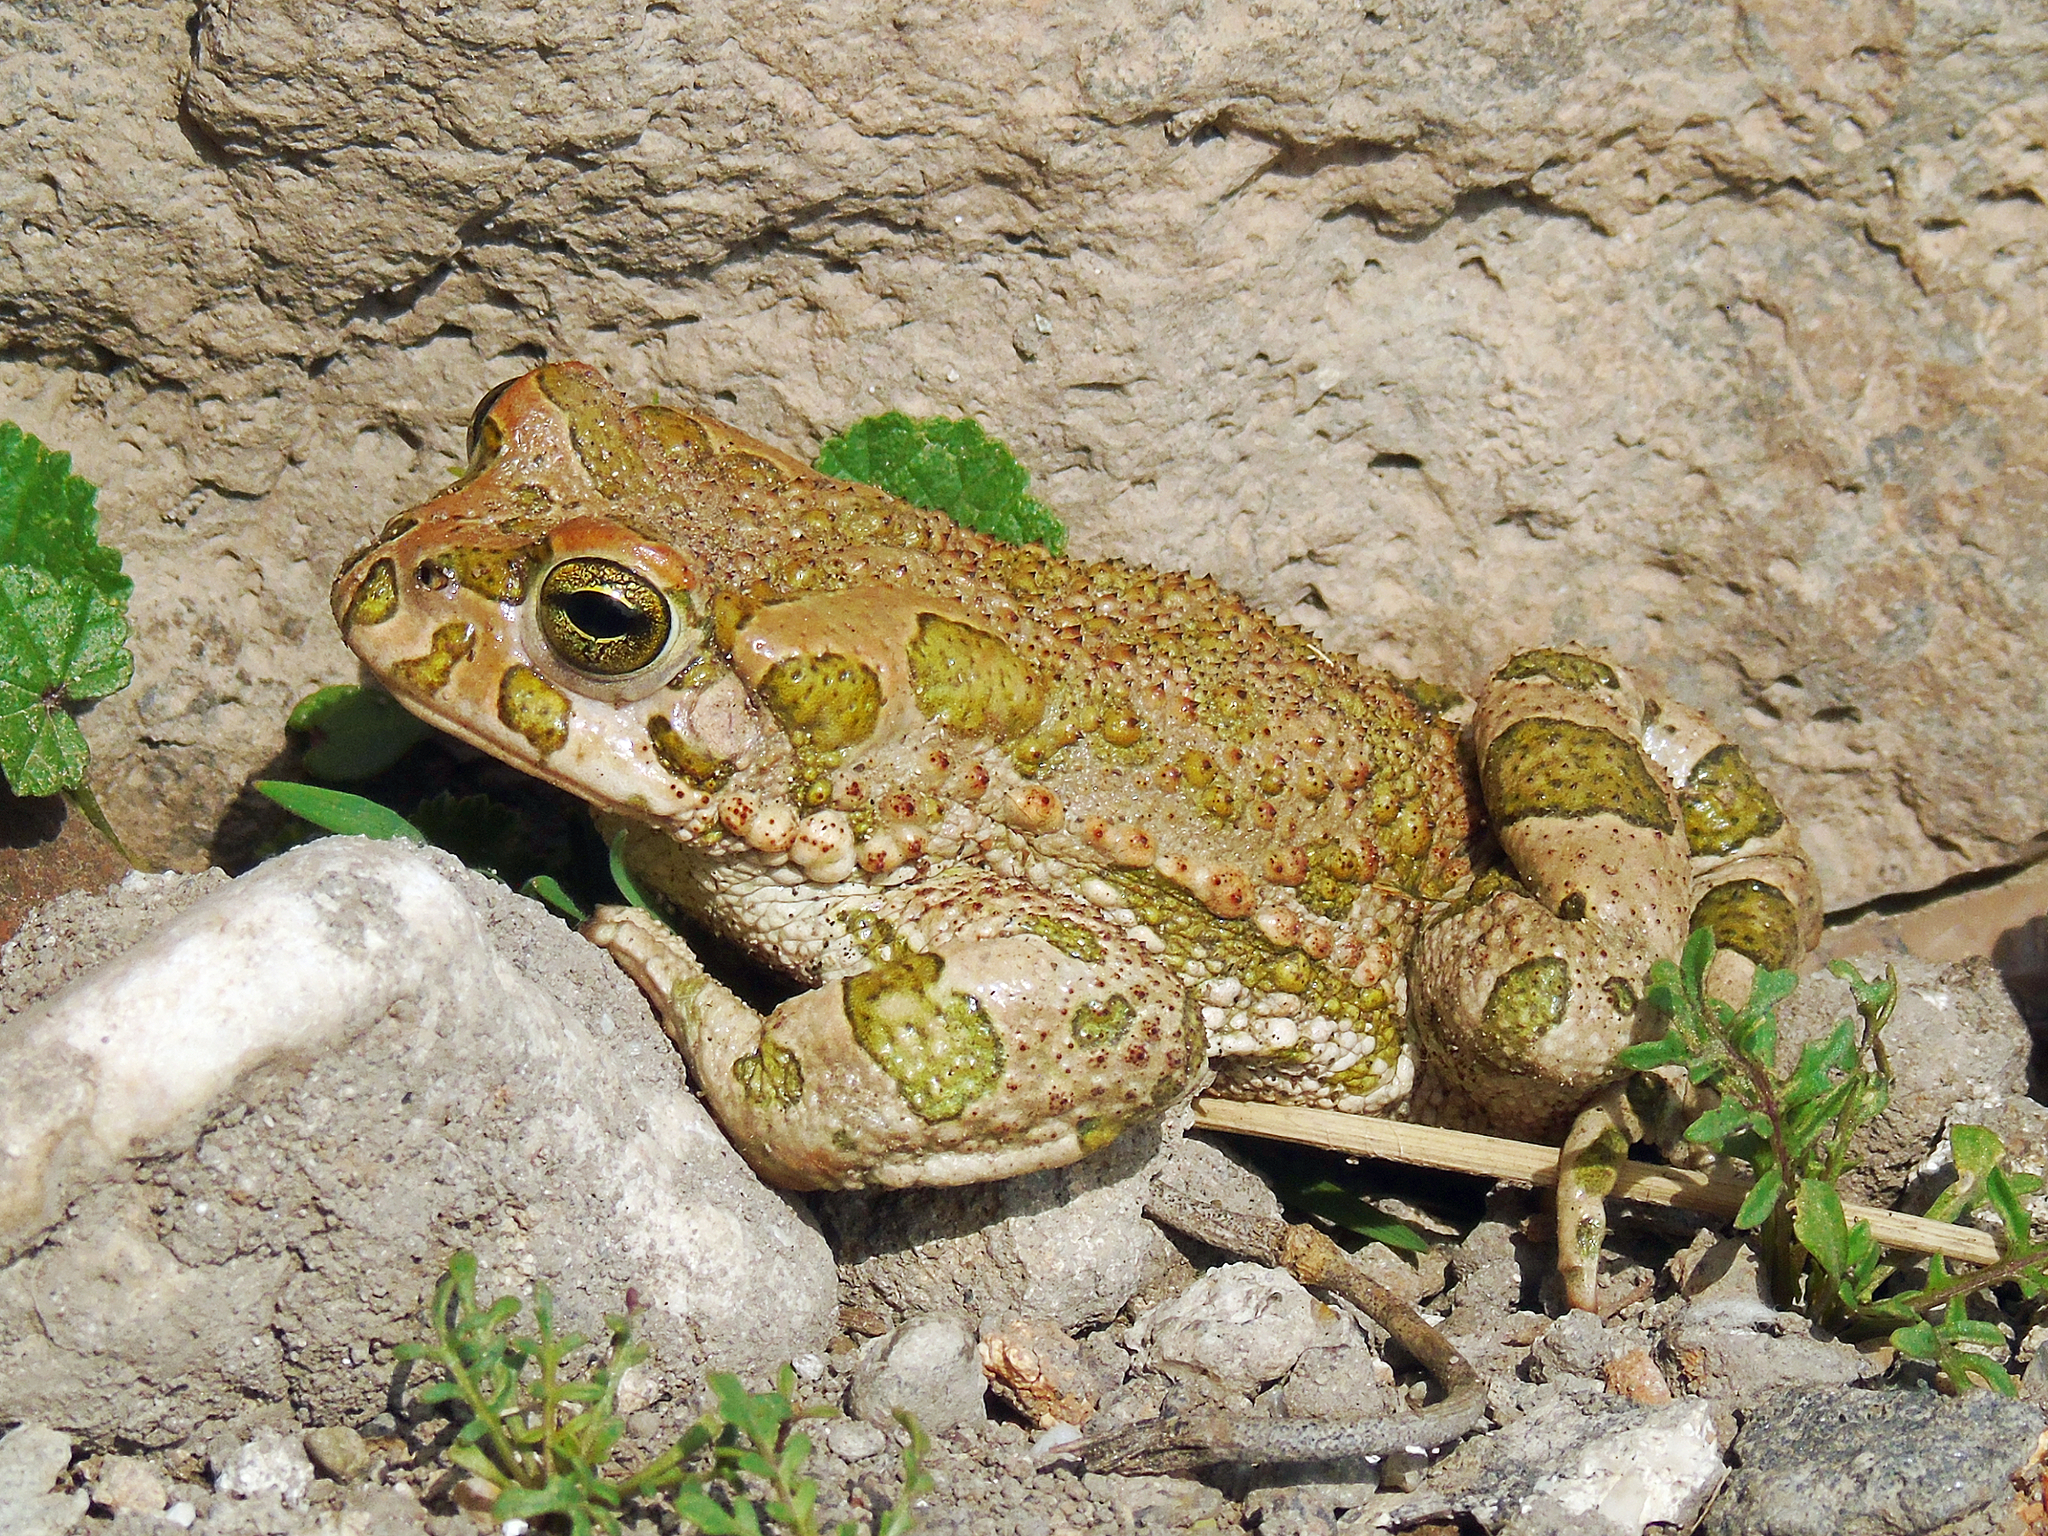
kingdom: Animalia
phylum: Chordata
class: Amphibia
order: Anura
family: Bufonidae
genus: Bufotes
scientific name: Bufotes viridis
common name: European green toad
